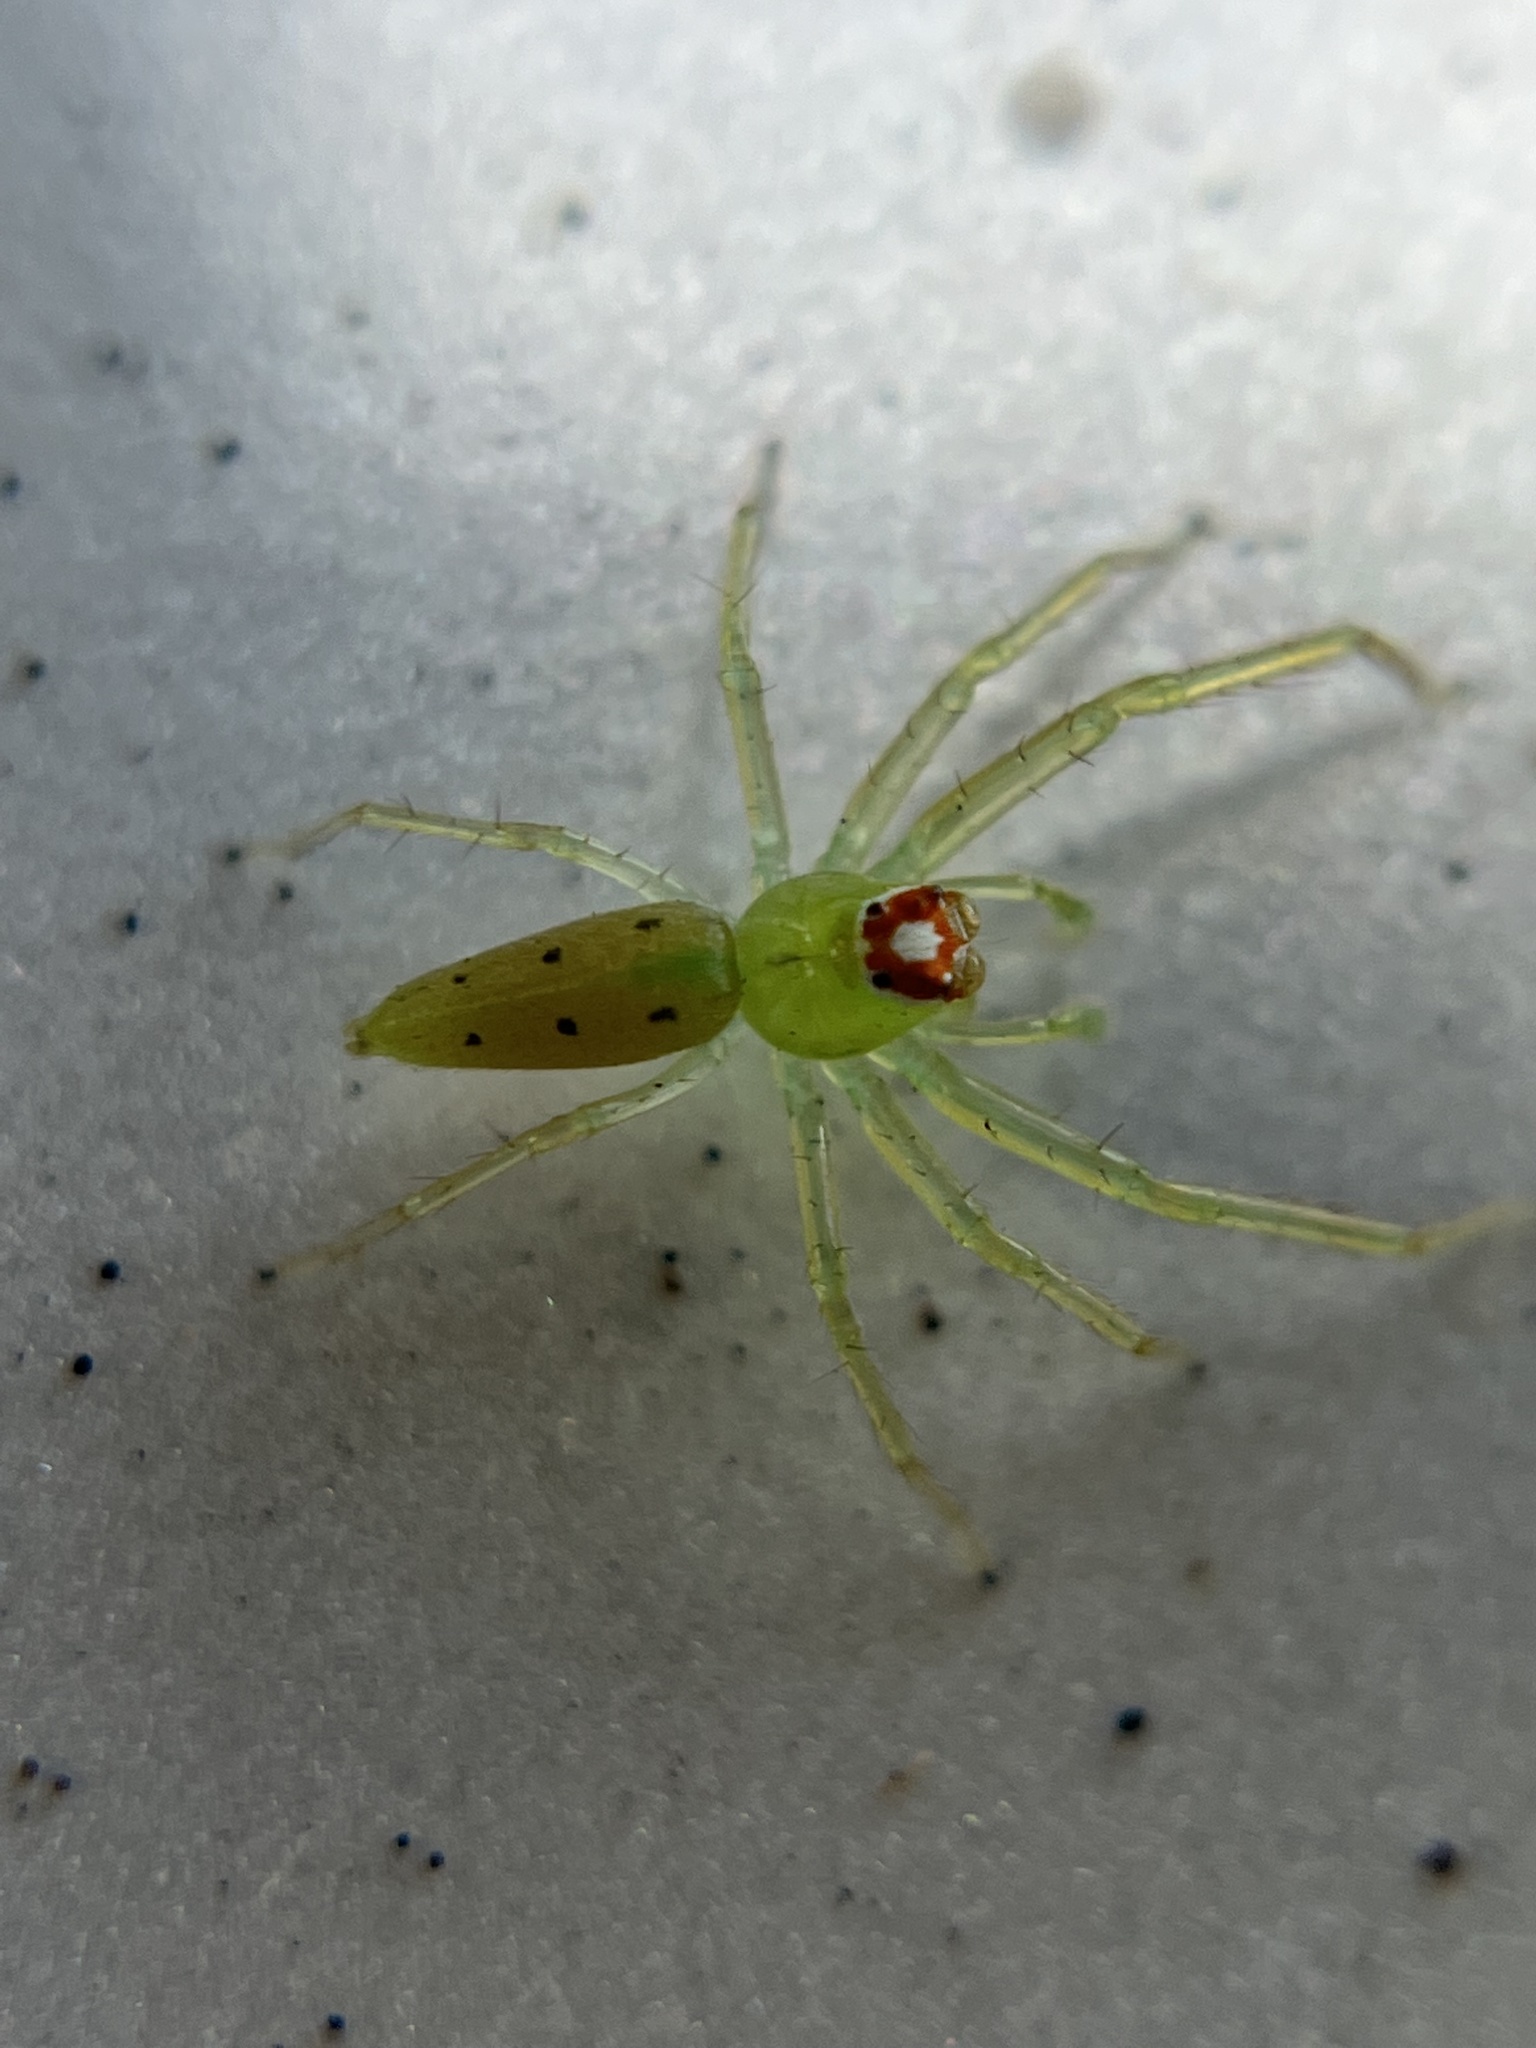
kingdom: Animalia
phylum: Arthropoda
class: Arachnida
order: Araneae
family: Salticidae
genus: Lyssomanes
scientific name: Lyssomanes viridis
